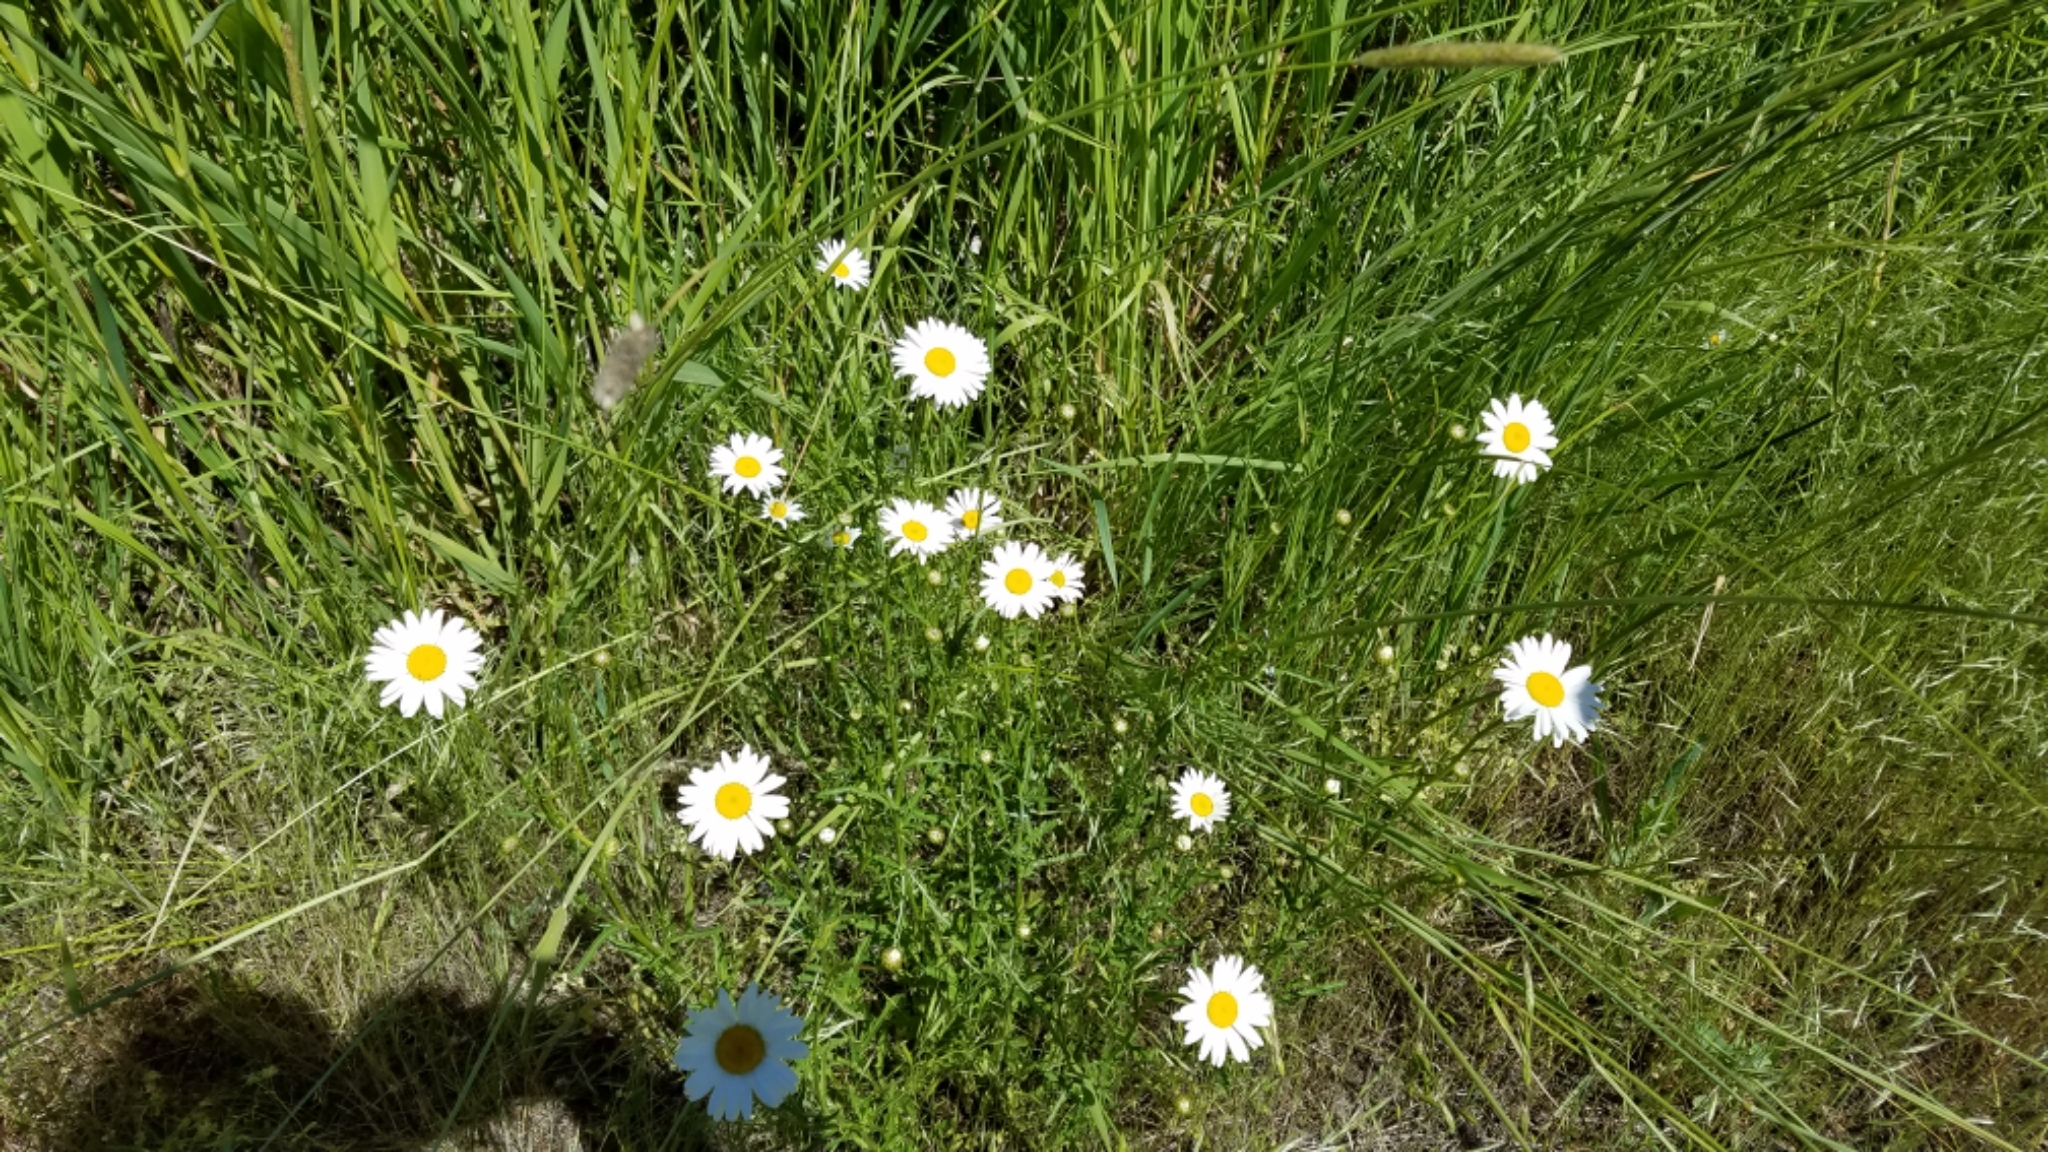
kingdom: Plantae
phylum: Tracheophyta
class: Magnoliopsida
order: Asterales
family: Asteraceae
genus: Leucanthemum
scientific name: Leucanthemum vulgare
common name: Oxeye daisy
